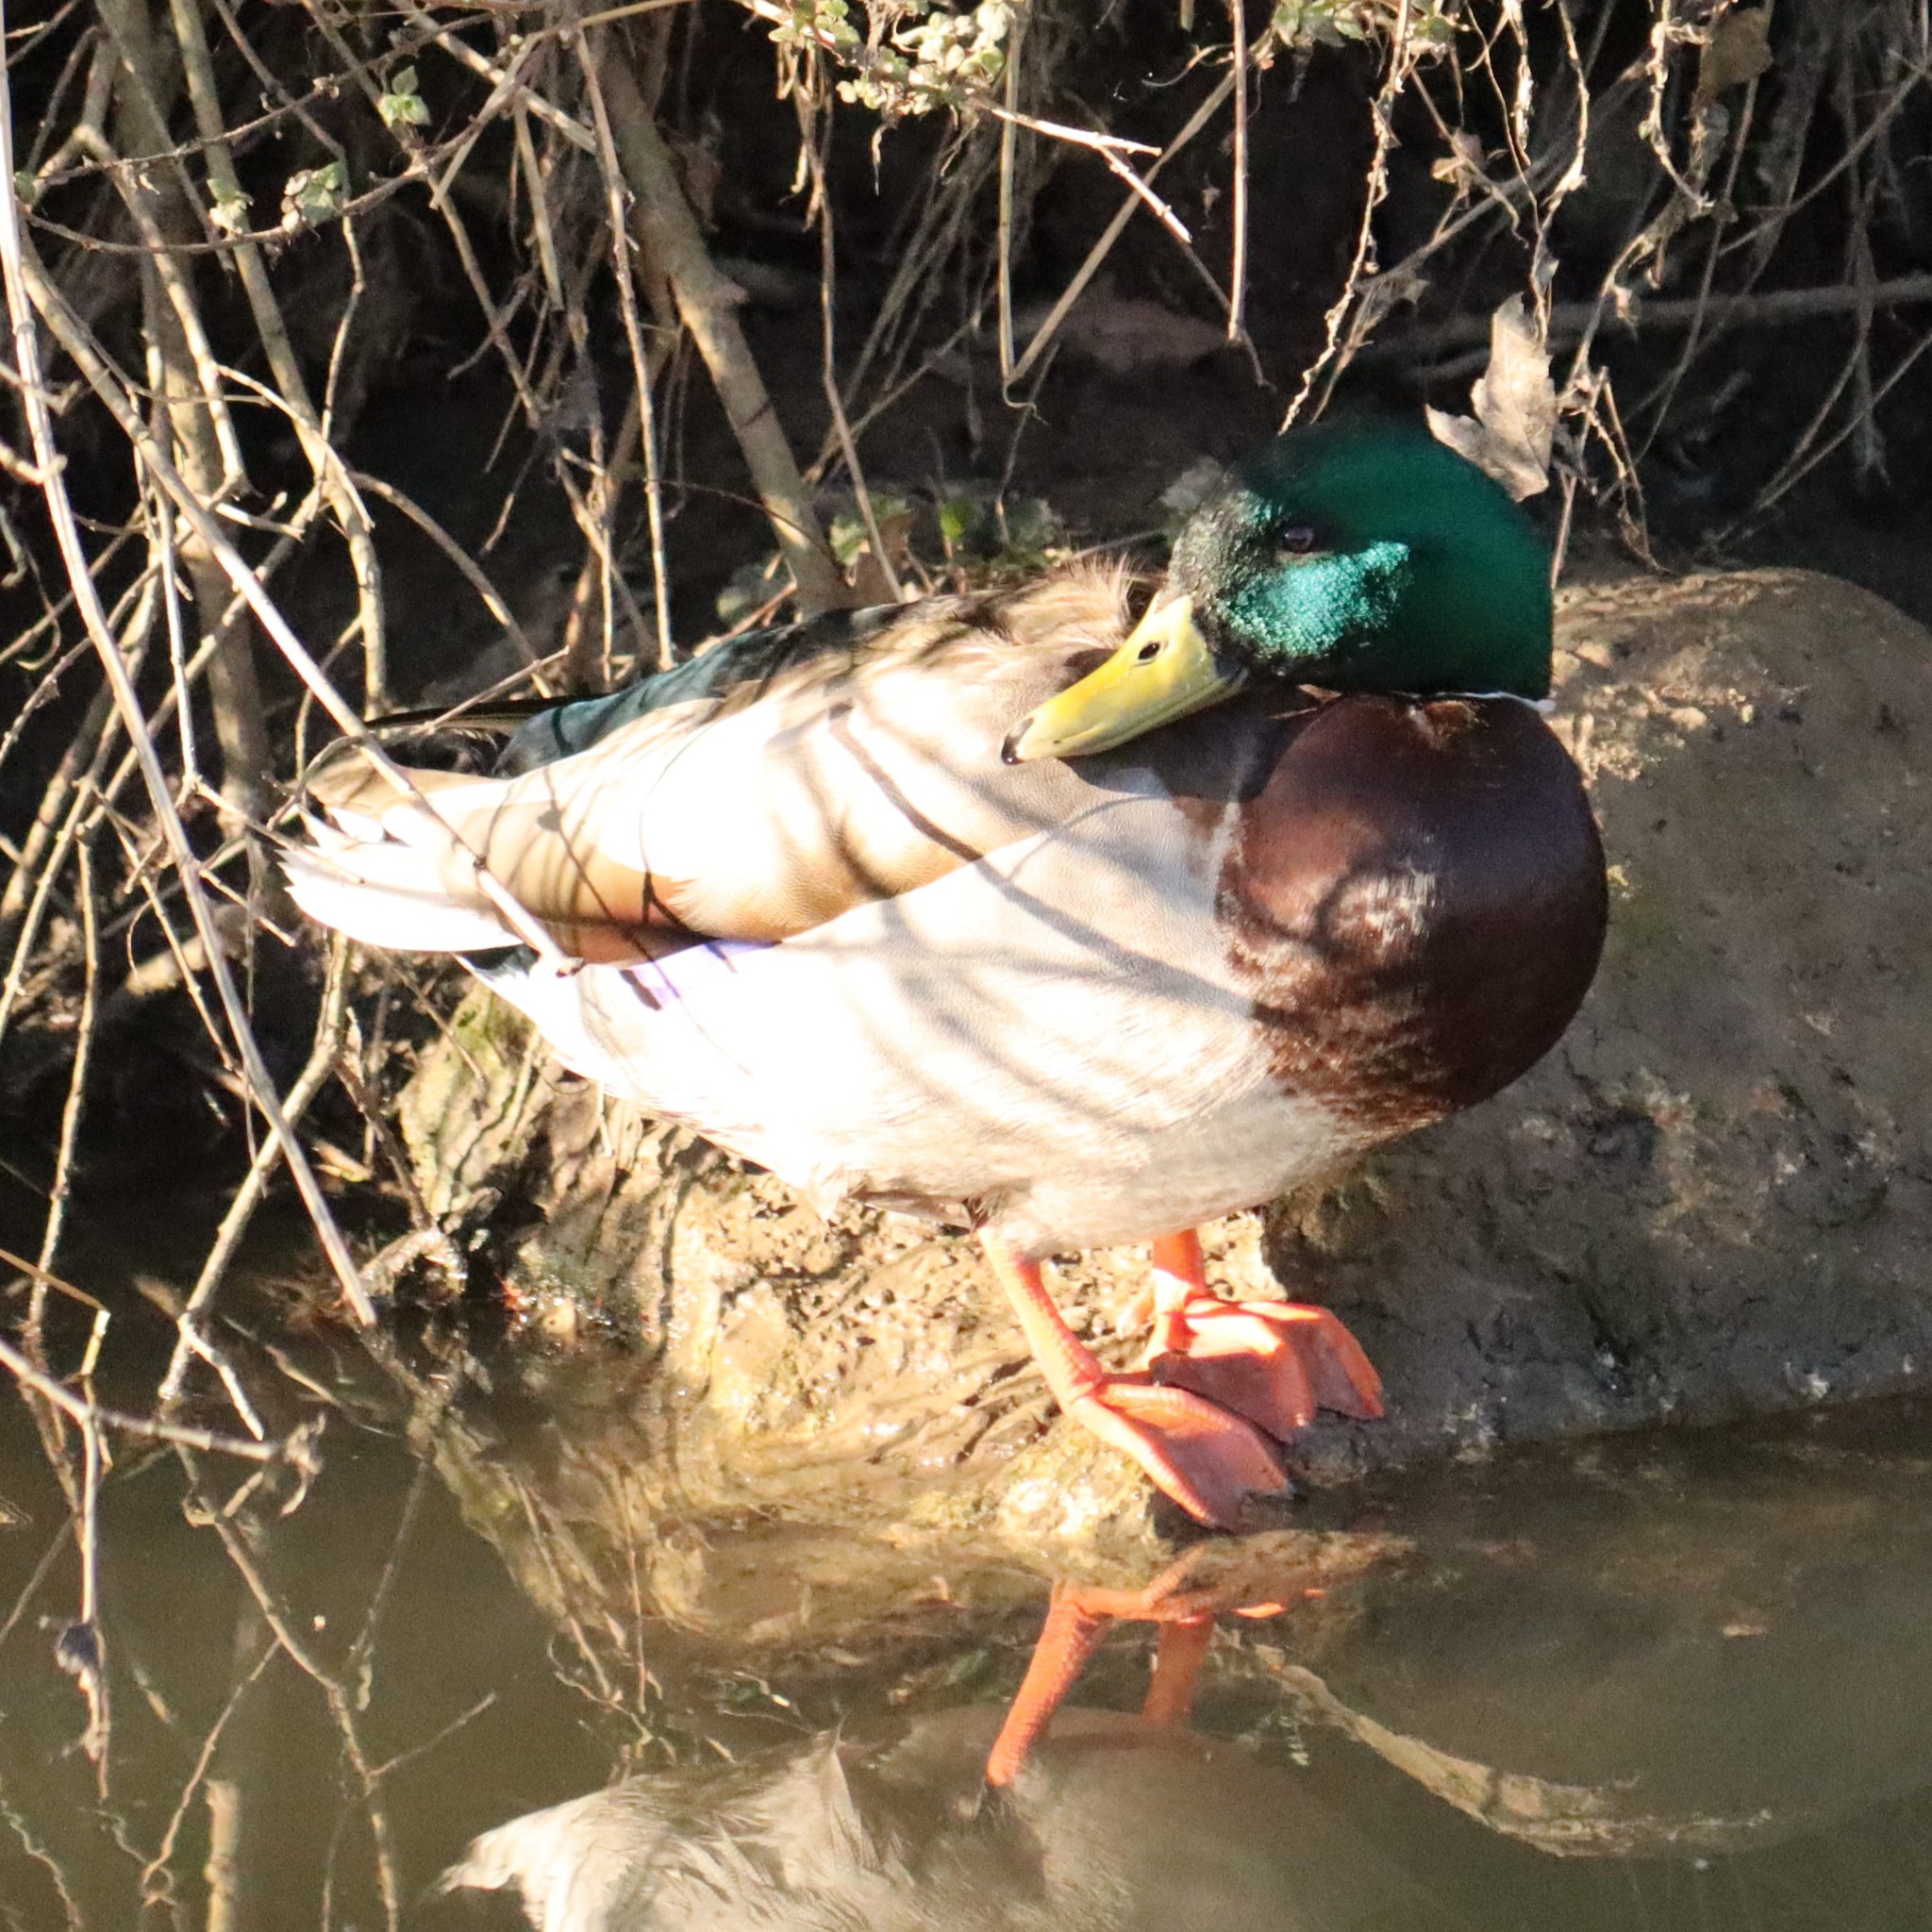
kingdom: Animalia
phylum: Chordata
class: Aves
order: Anseriformes
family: Anatidae
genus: Anas
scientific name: Anas platyrhynchos
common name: Mallard
